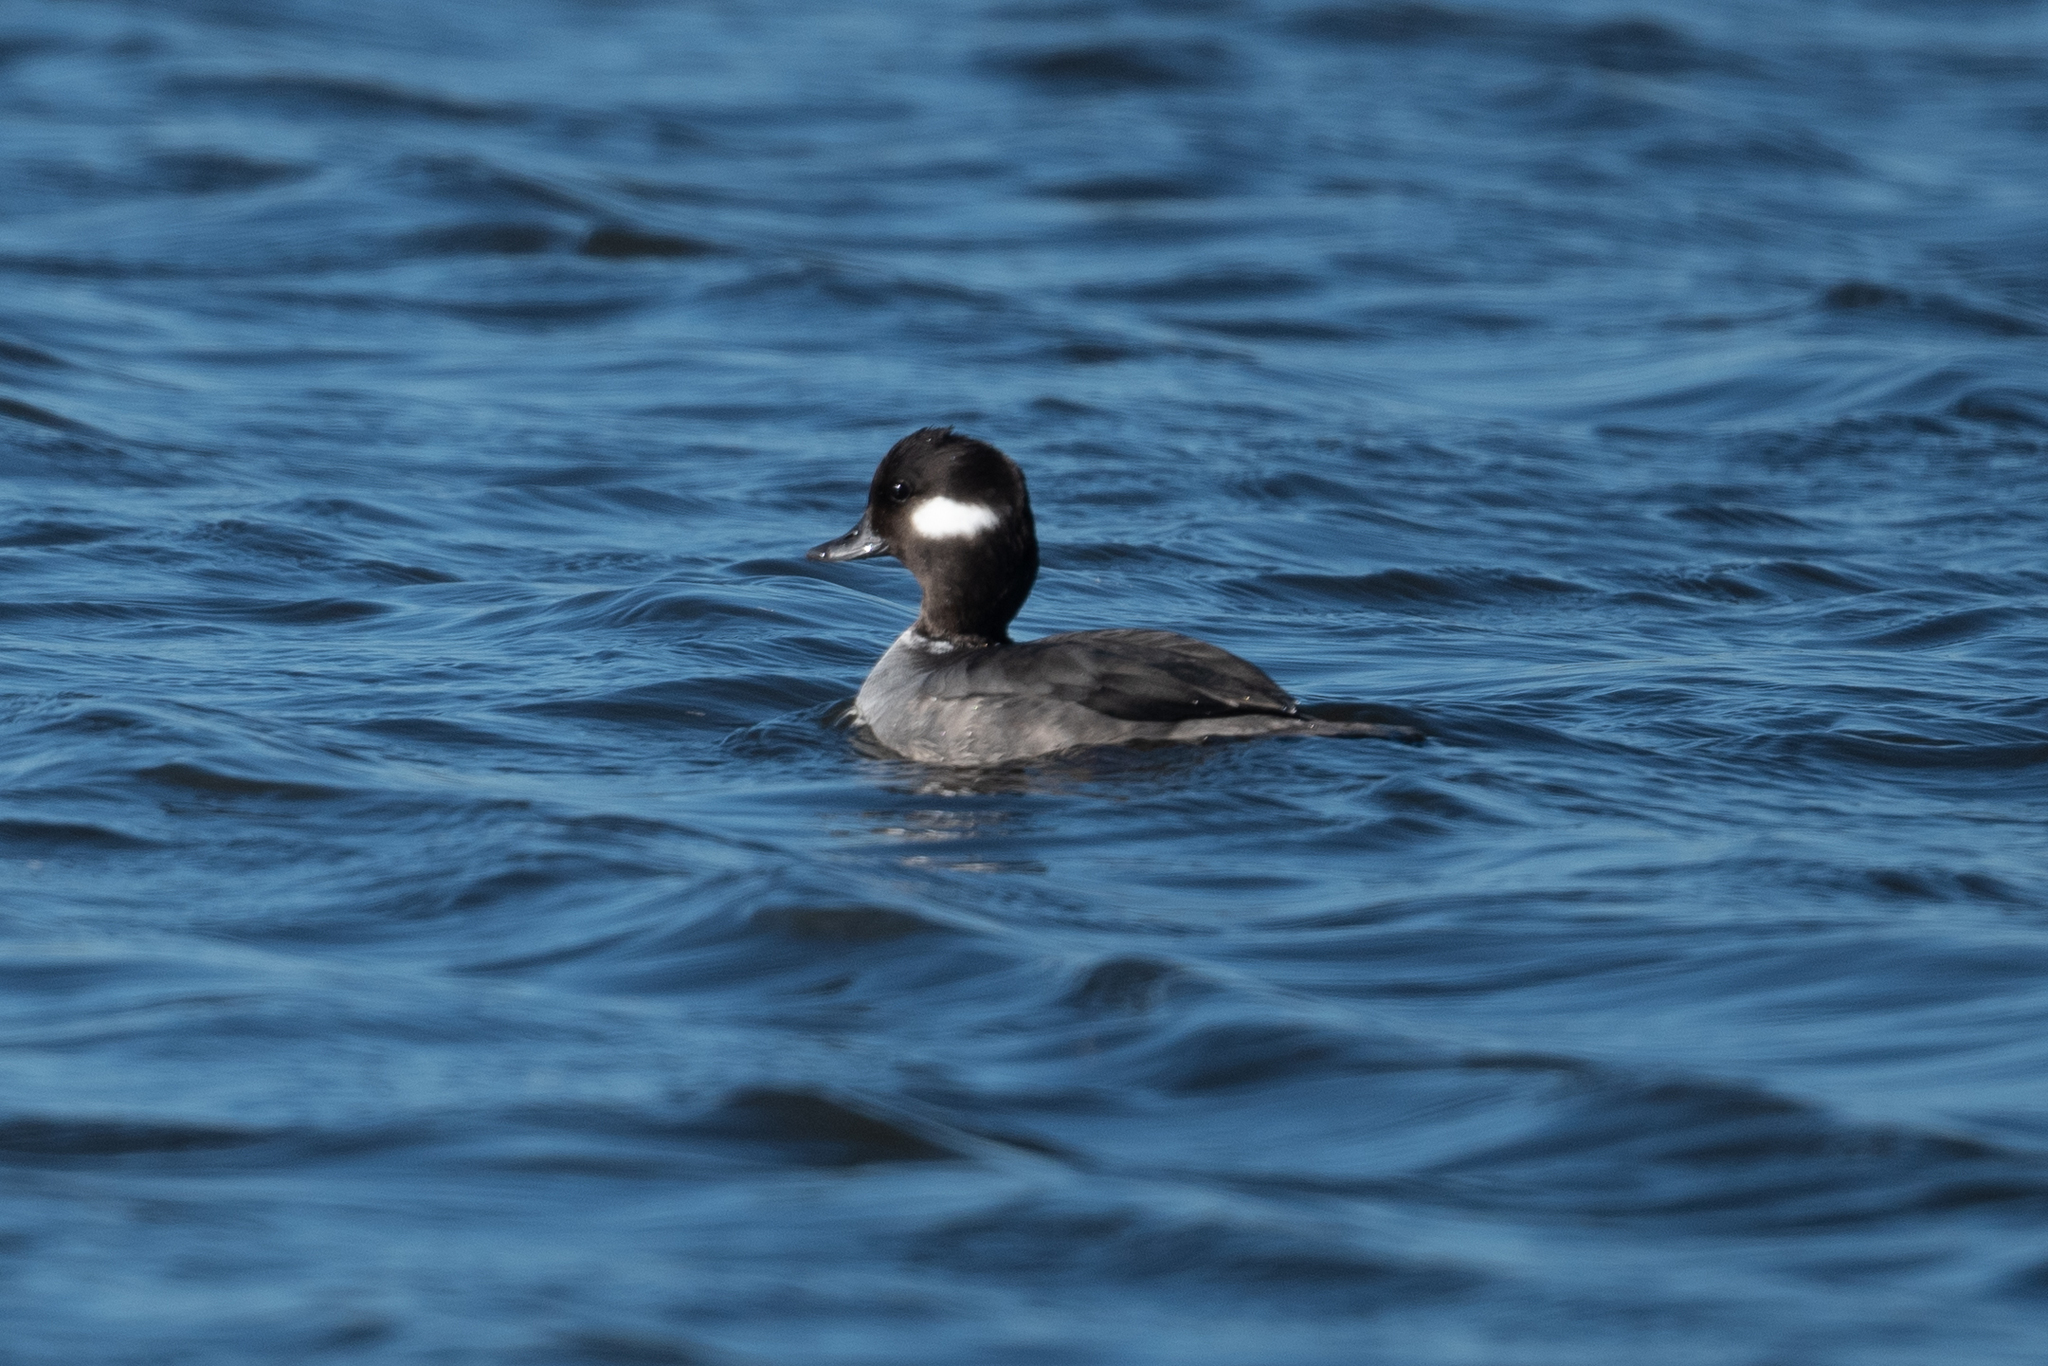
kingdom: Animalia
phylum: Chordata
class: Aves
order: Anseriformes
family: Anatidae
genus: Bucephala
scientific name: Bucephala albeola
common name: Bufflehead
